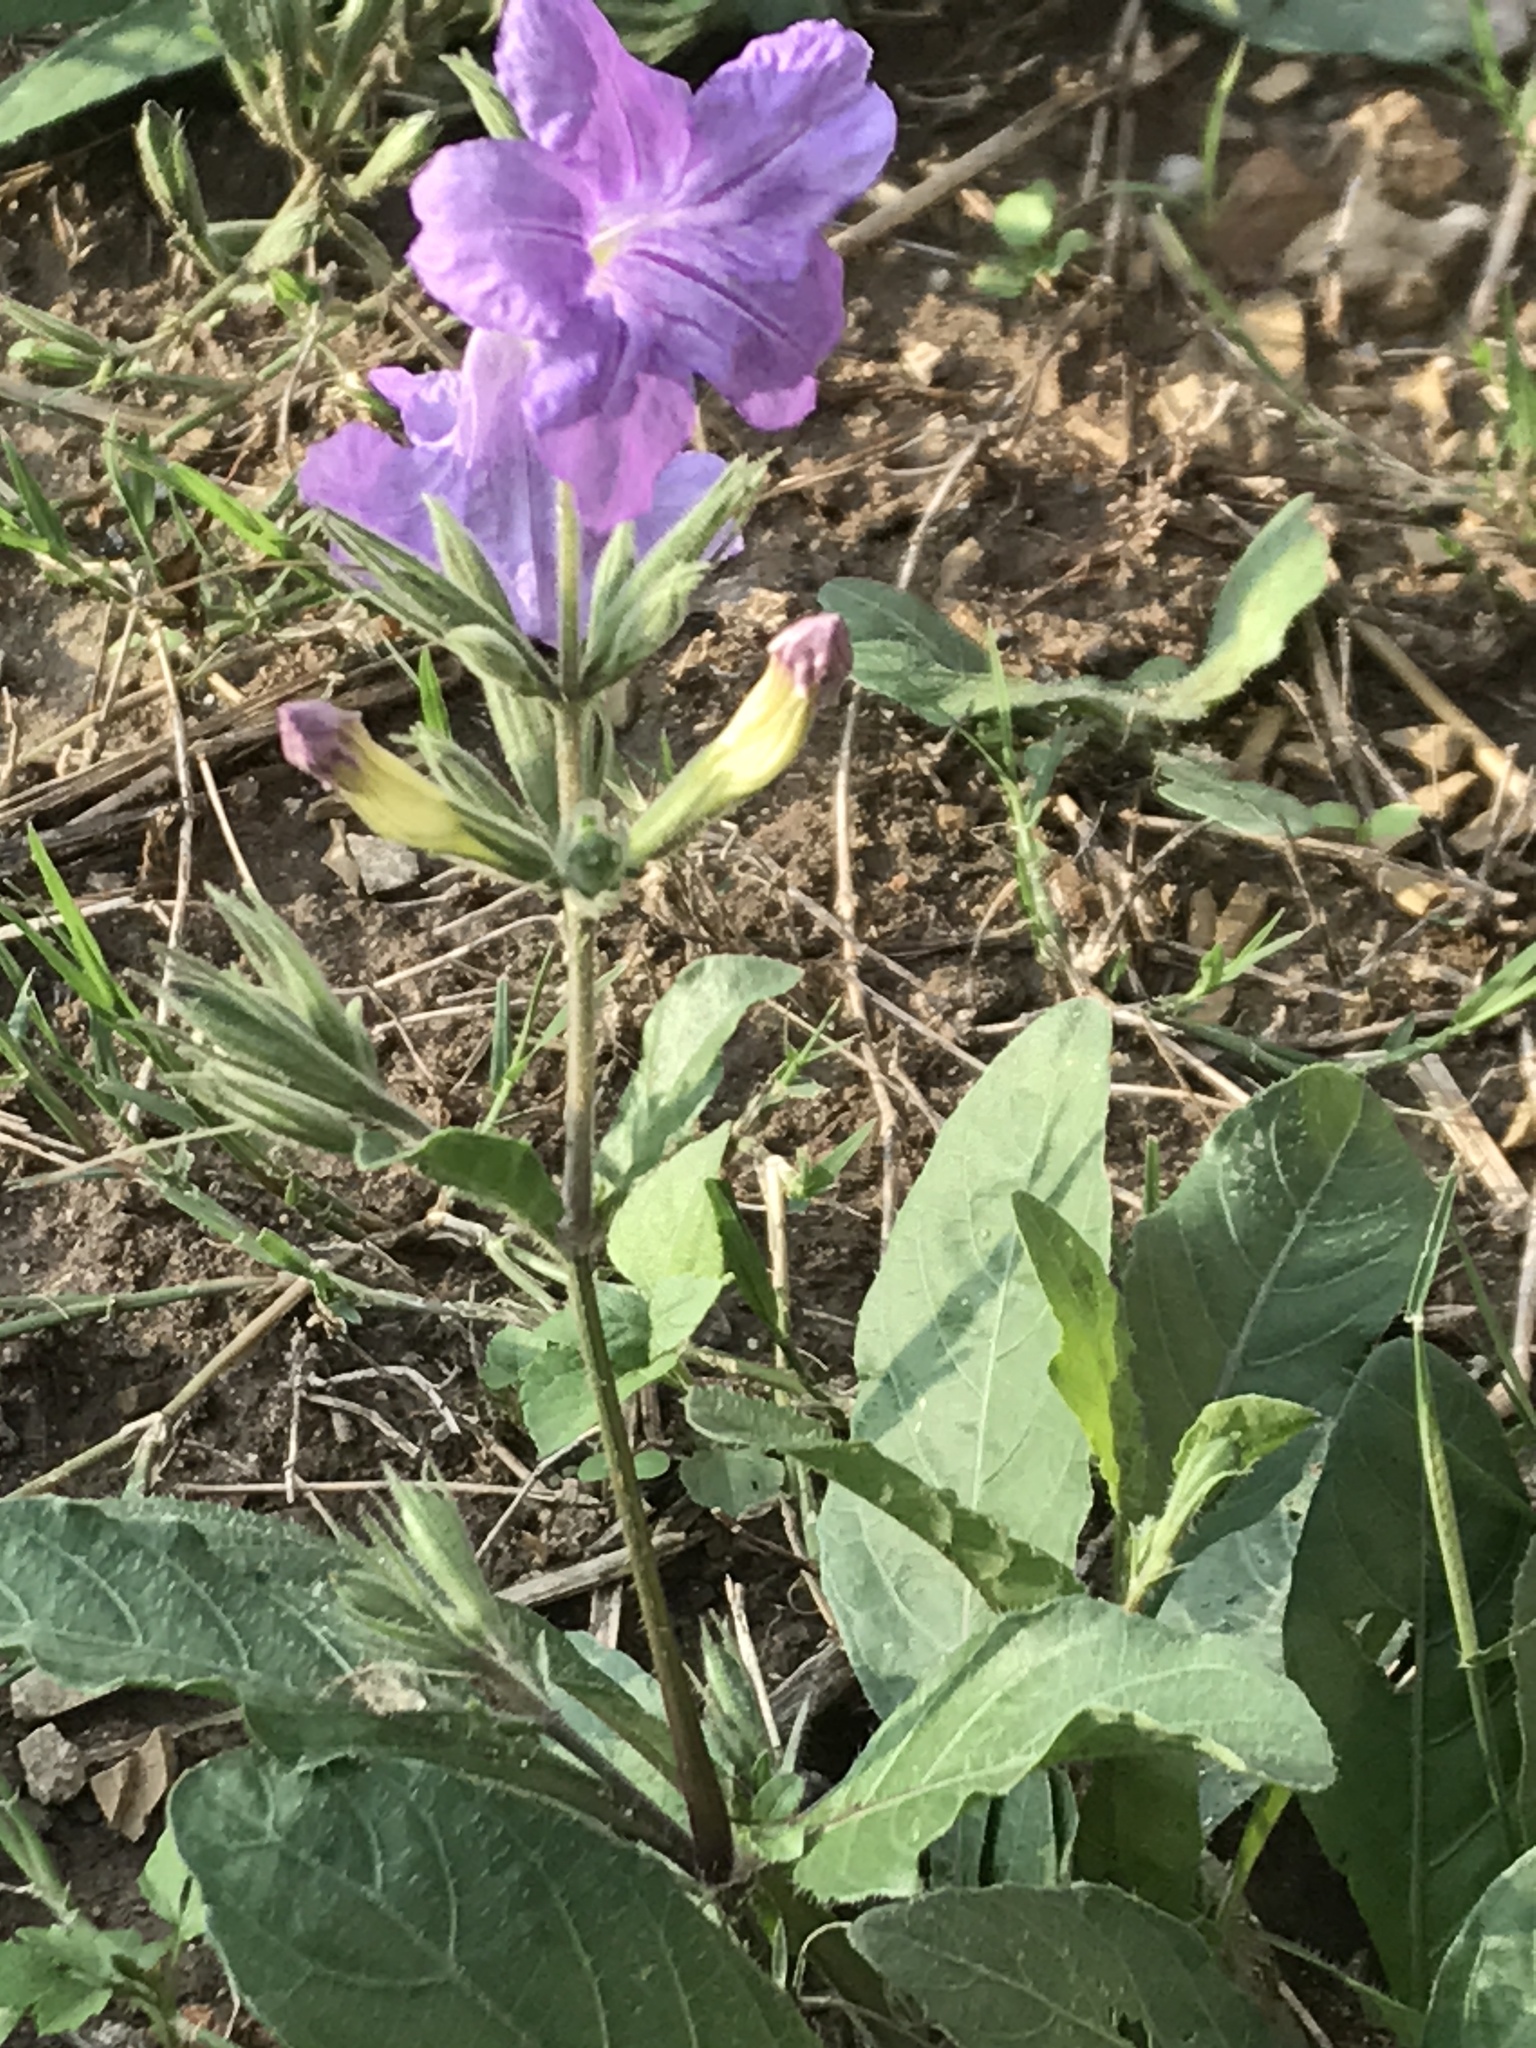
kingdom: Plantae
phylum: Tracheophyta
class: Magnoliopsida
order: Lamiales
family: Acanthaceae
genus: Ruellia
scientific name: Ruellia ciliatiflora
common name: Hairyflower wild petunia
